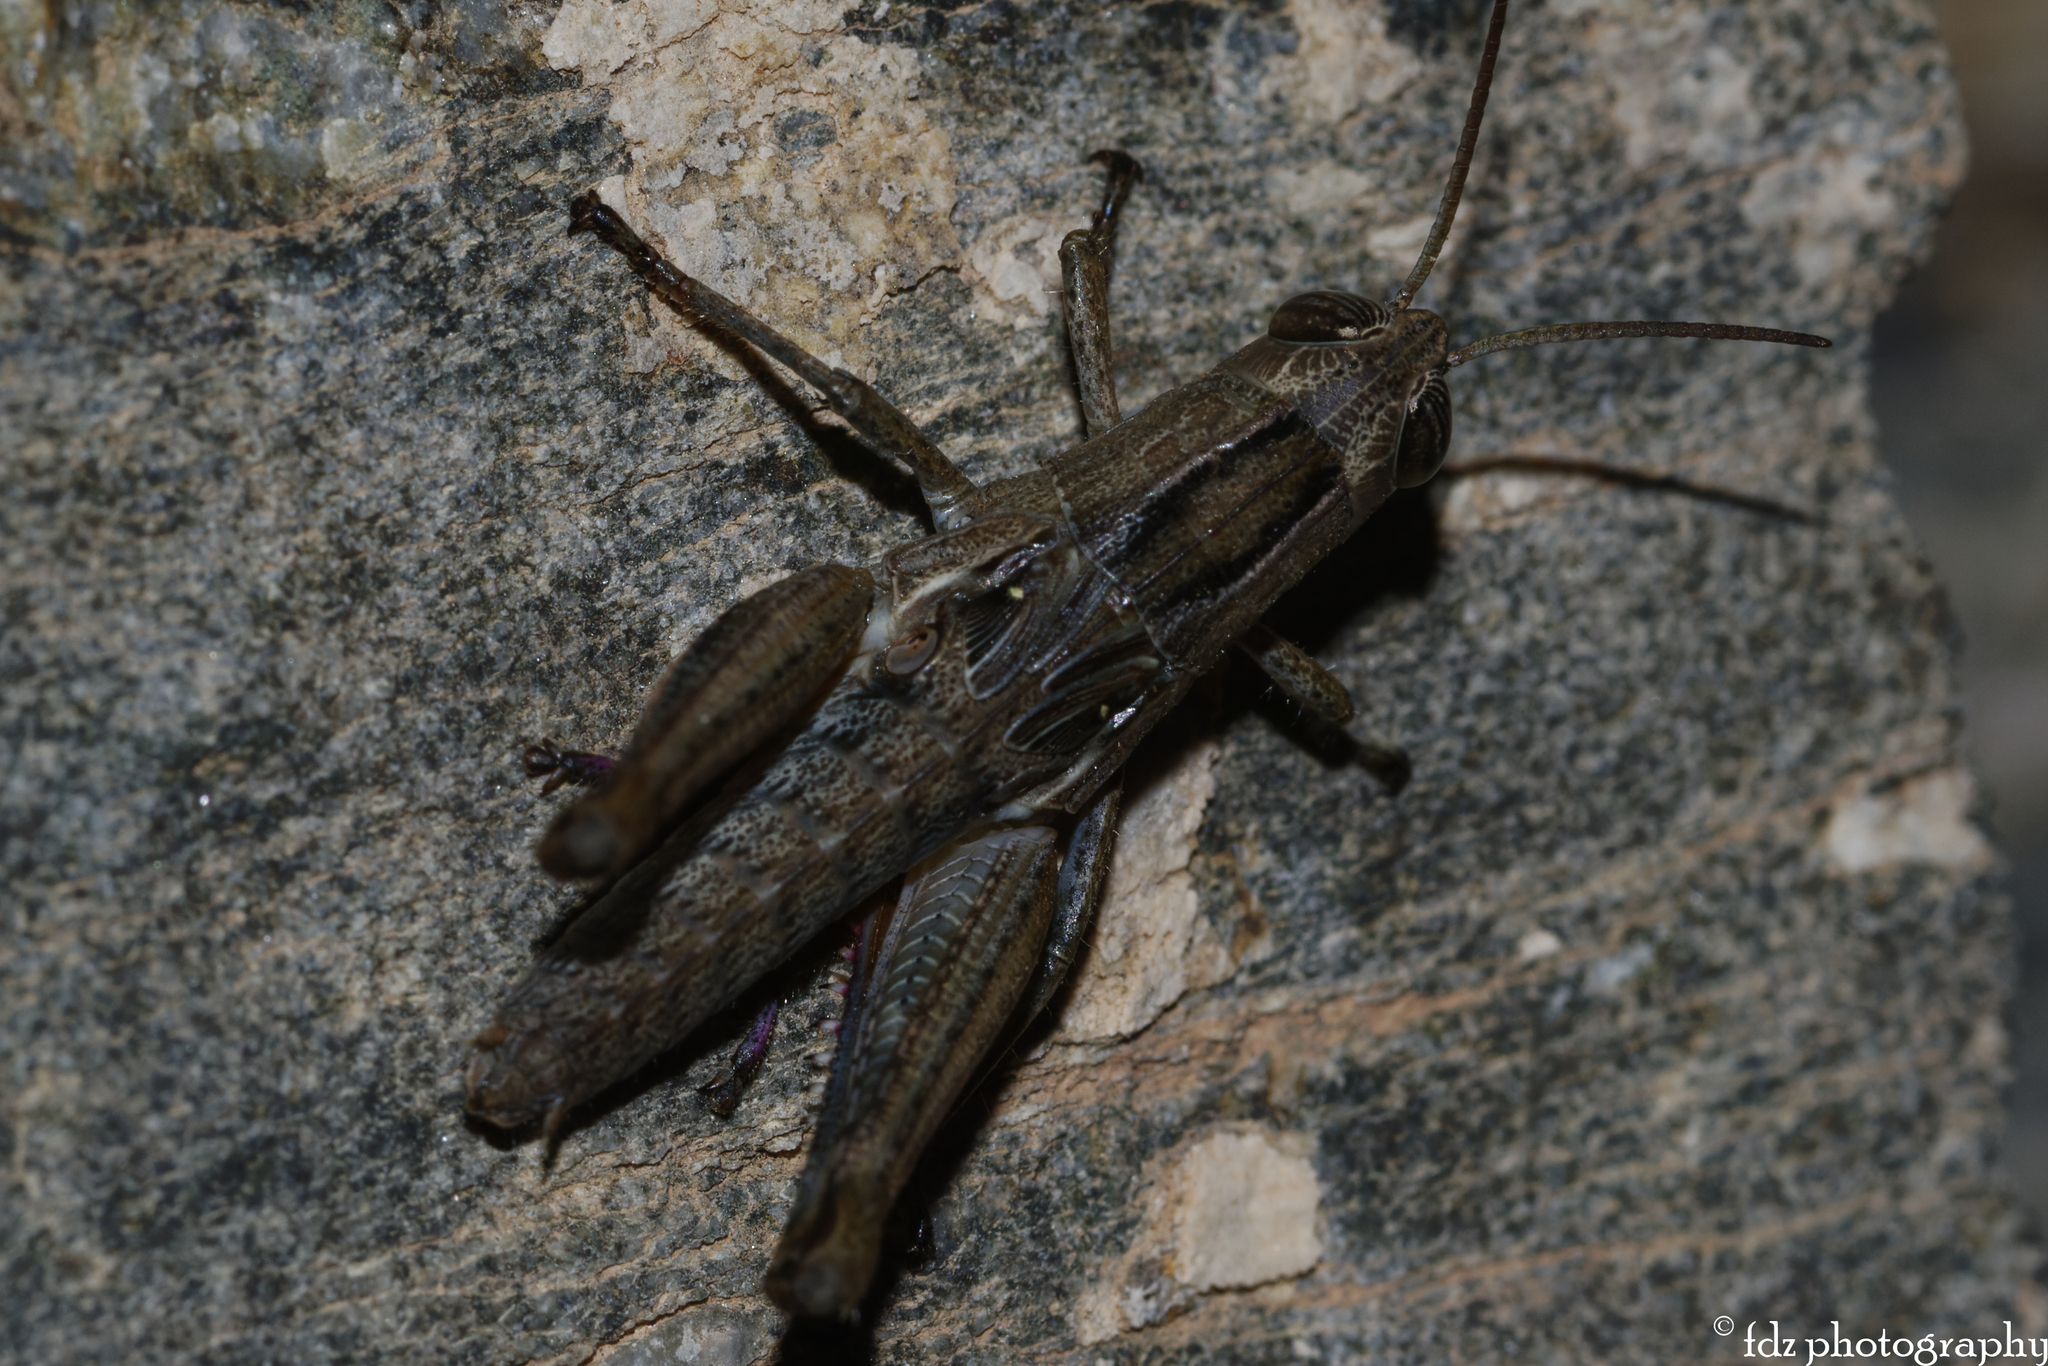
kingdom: Animalia
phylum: Arthropoda
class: Insecta
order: Orthoptera
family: Acrididae
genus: Eyprepocnemis
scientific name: Eyprepocnemis plorans
